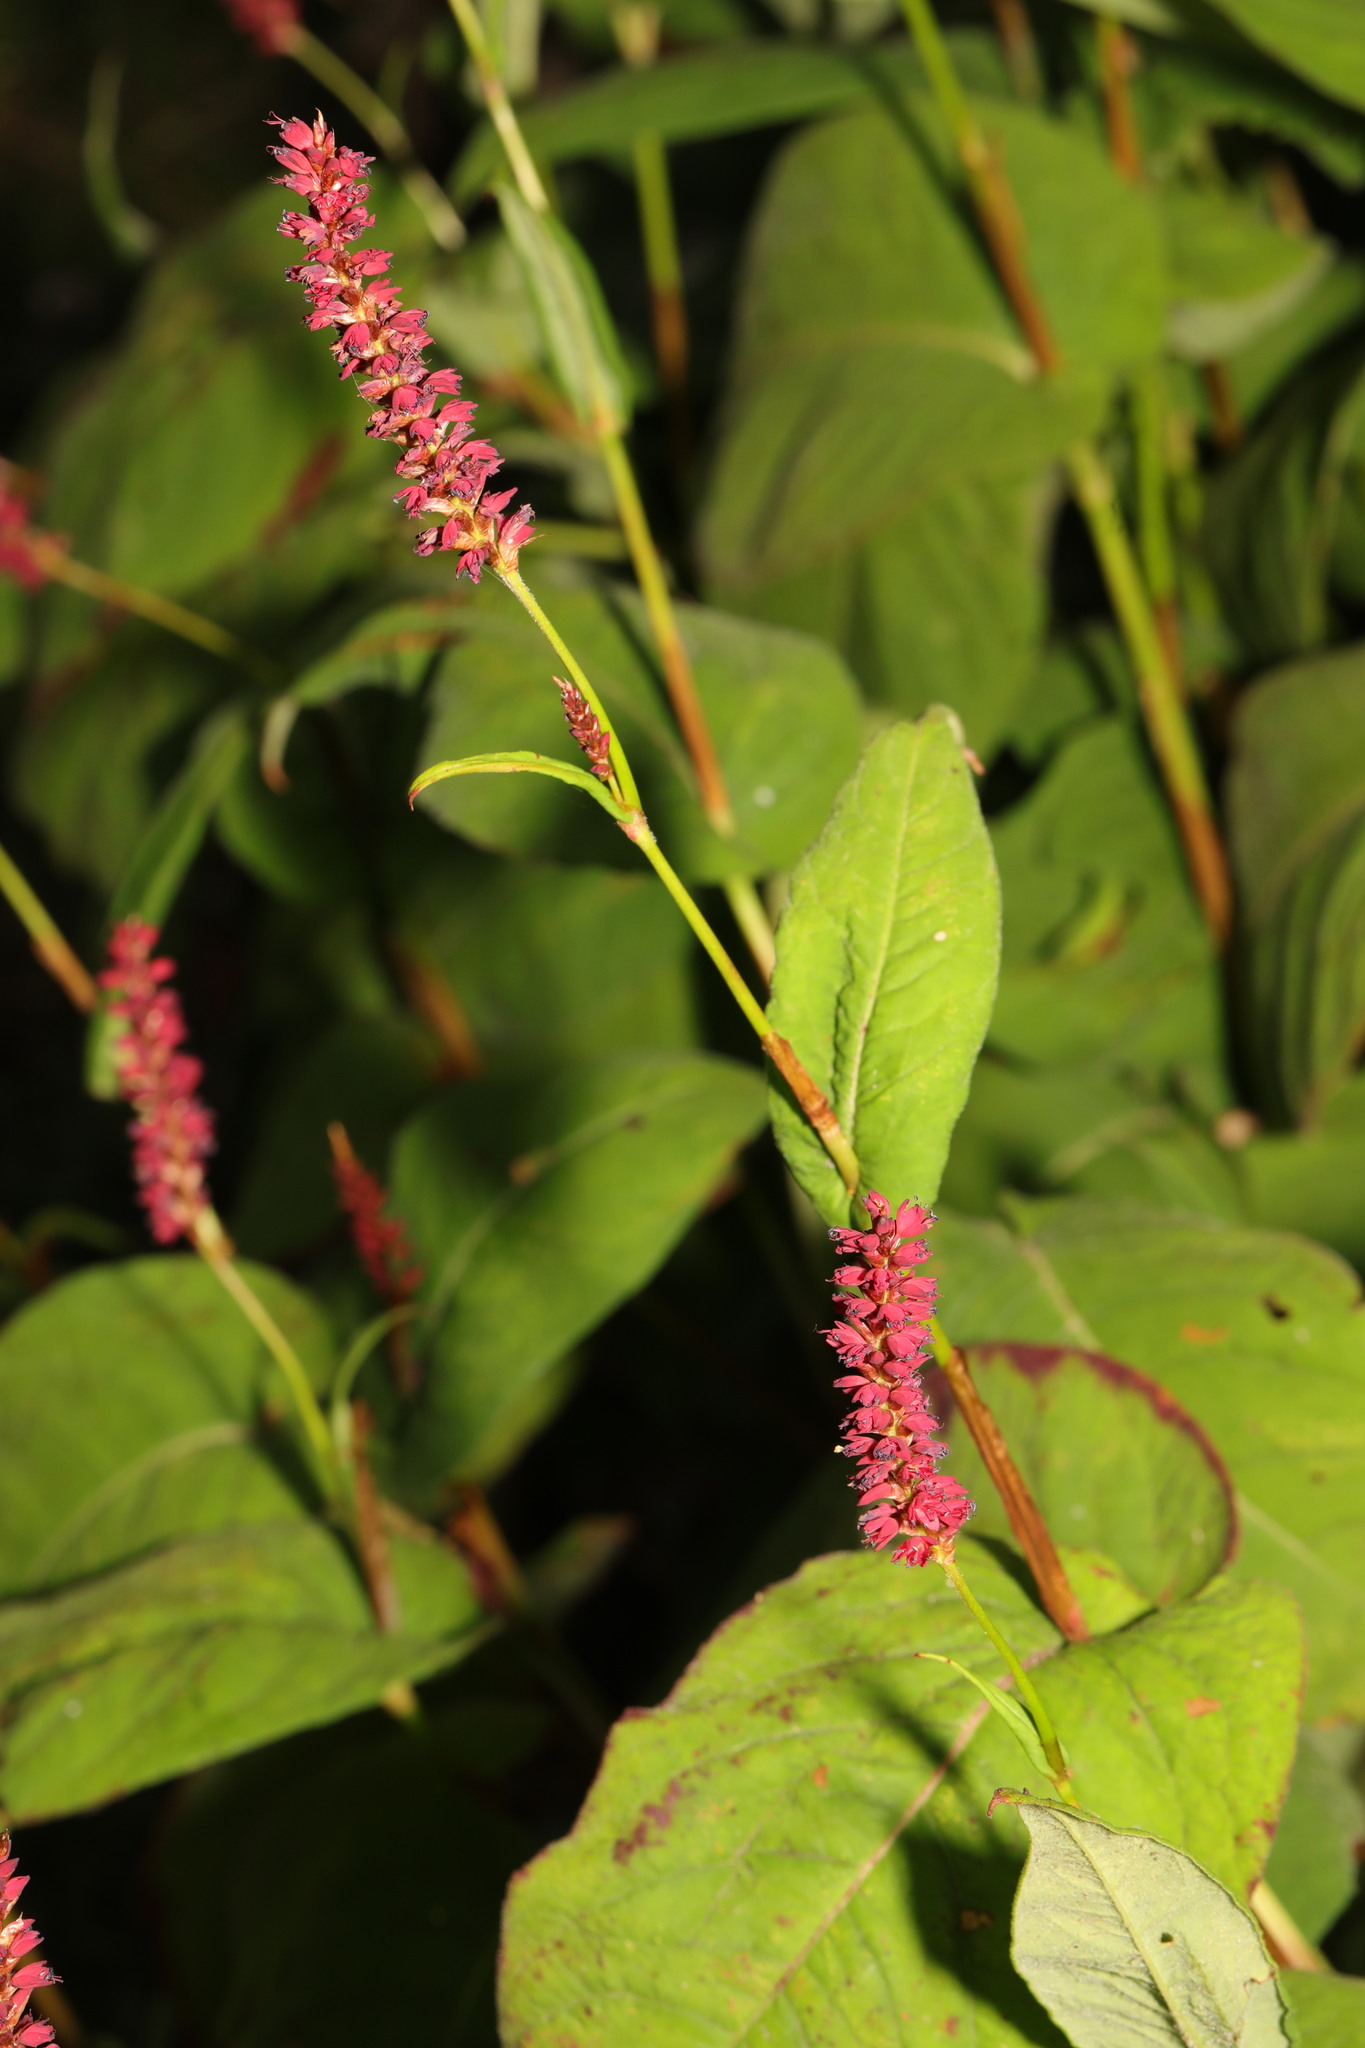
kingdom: Plantae
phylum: Tracheophyta
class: Magnoliopsida
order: Caryophyllales
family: Polygonaceae
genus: Bistorta
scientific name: Bistorta amplexicaulis
